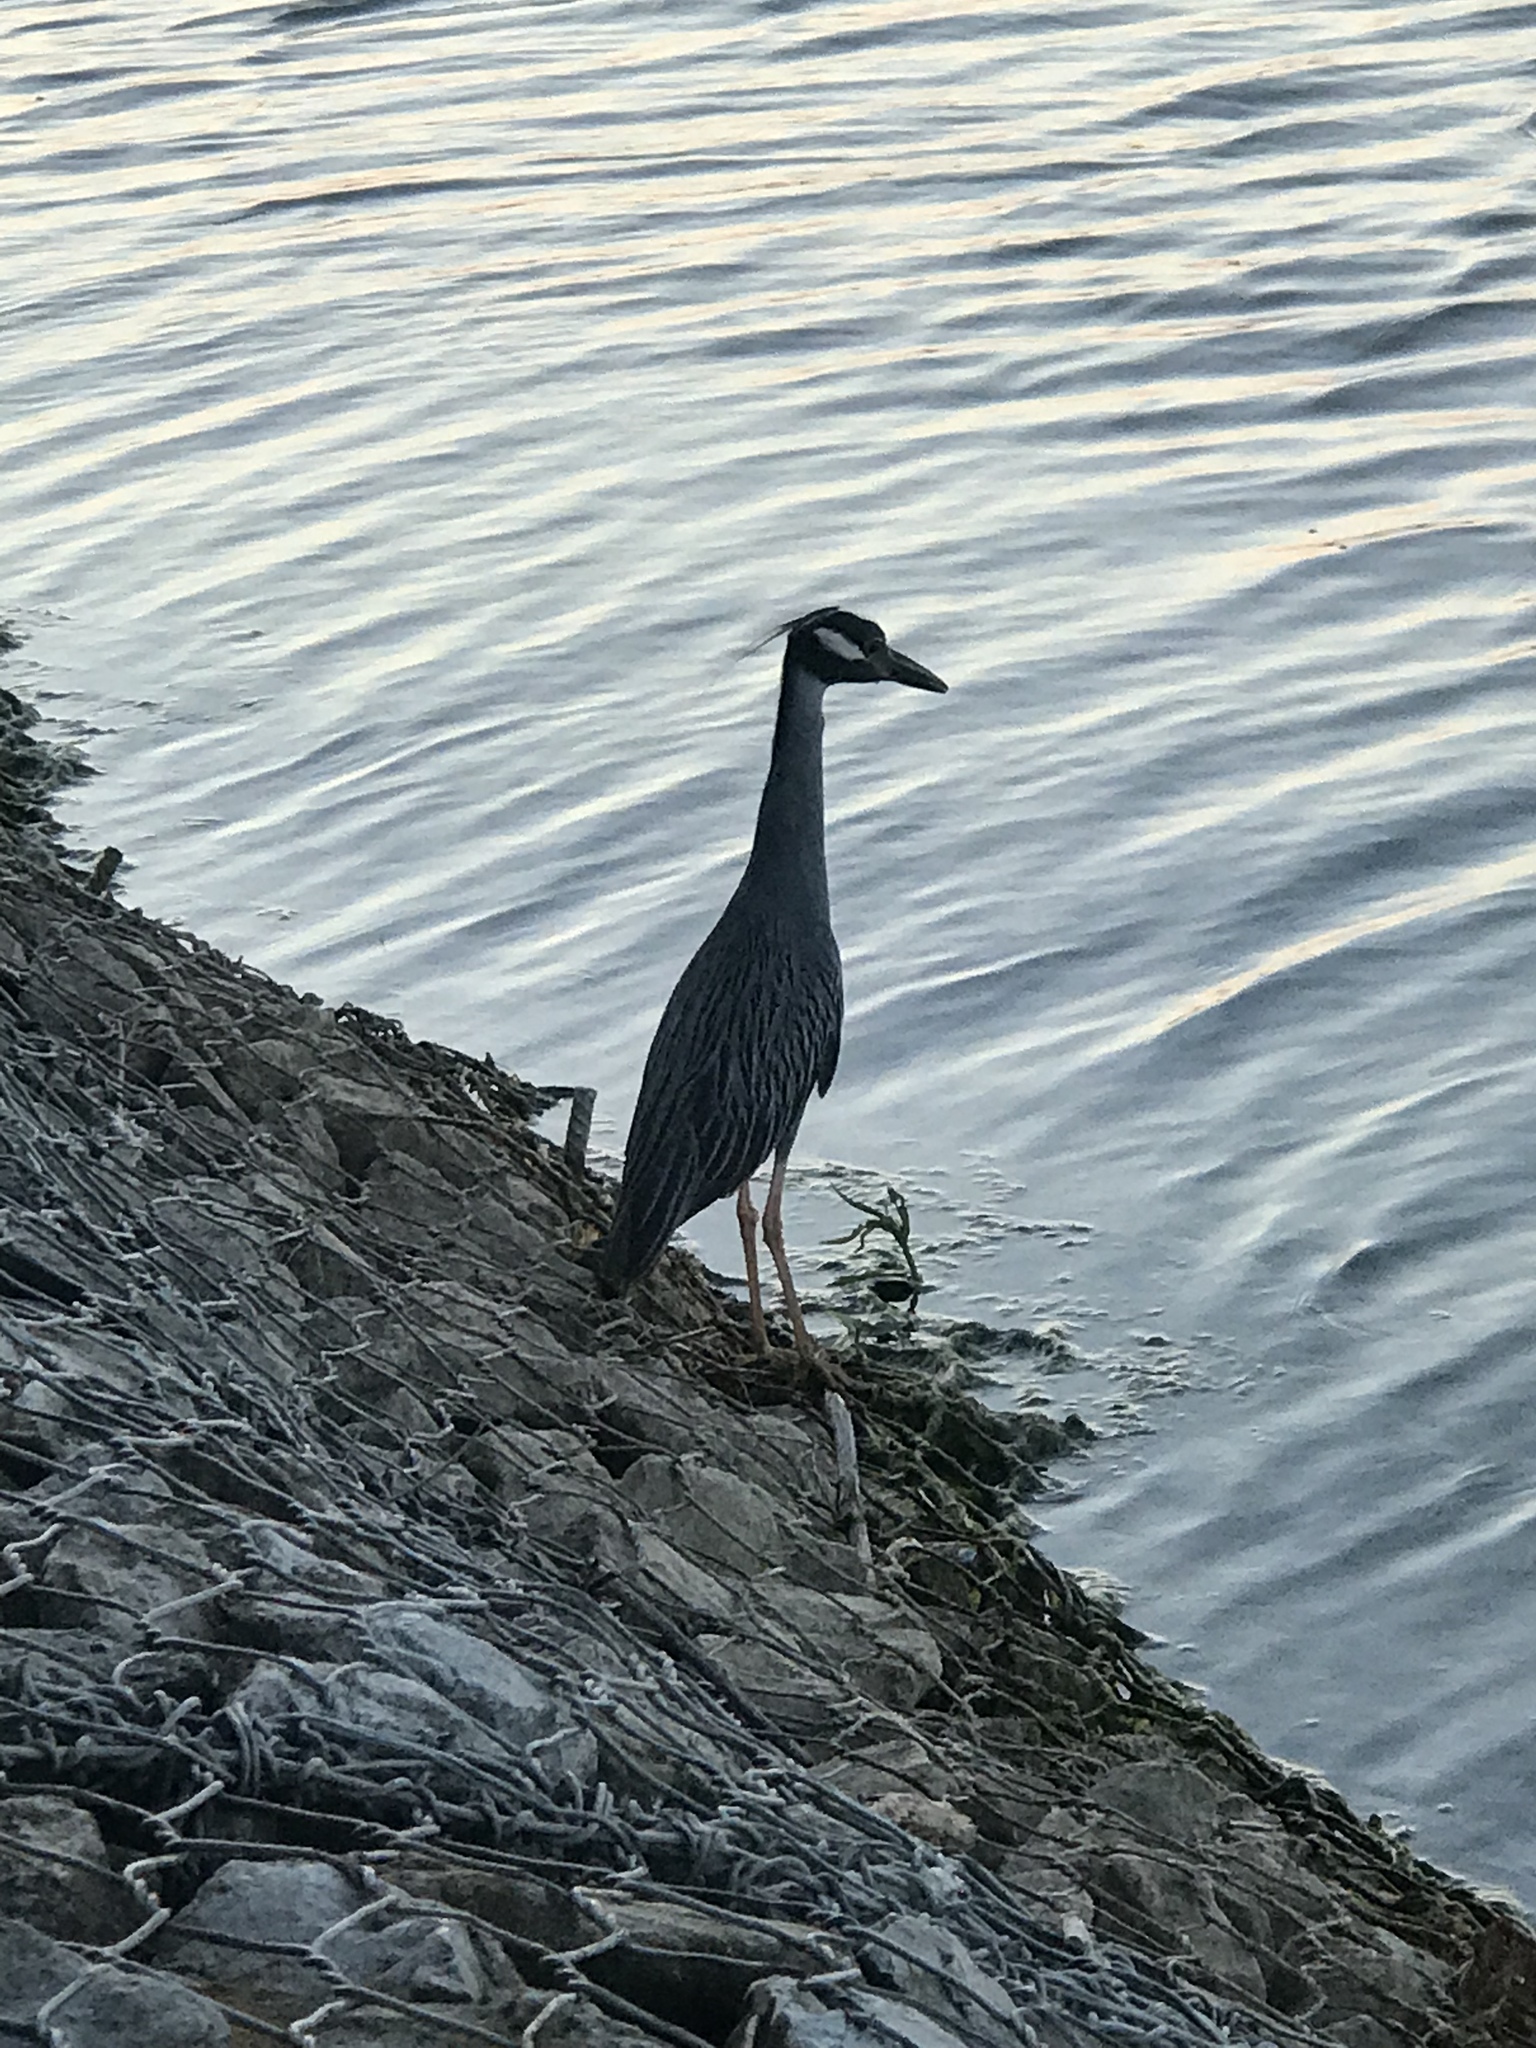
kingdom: Animalia
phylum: Chordata
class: Aves
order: Pelecaniformes
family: Ardeidae
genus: Nyctanassa
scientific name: Nyctanassa violacea
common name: Yellow-crowned night heron
